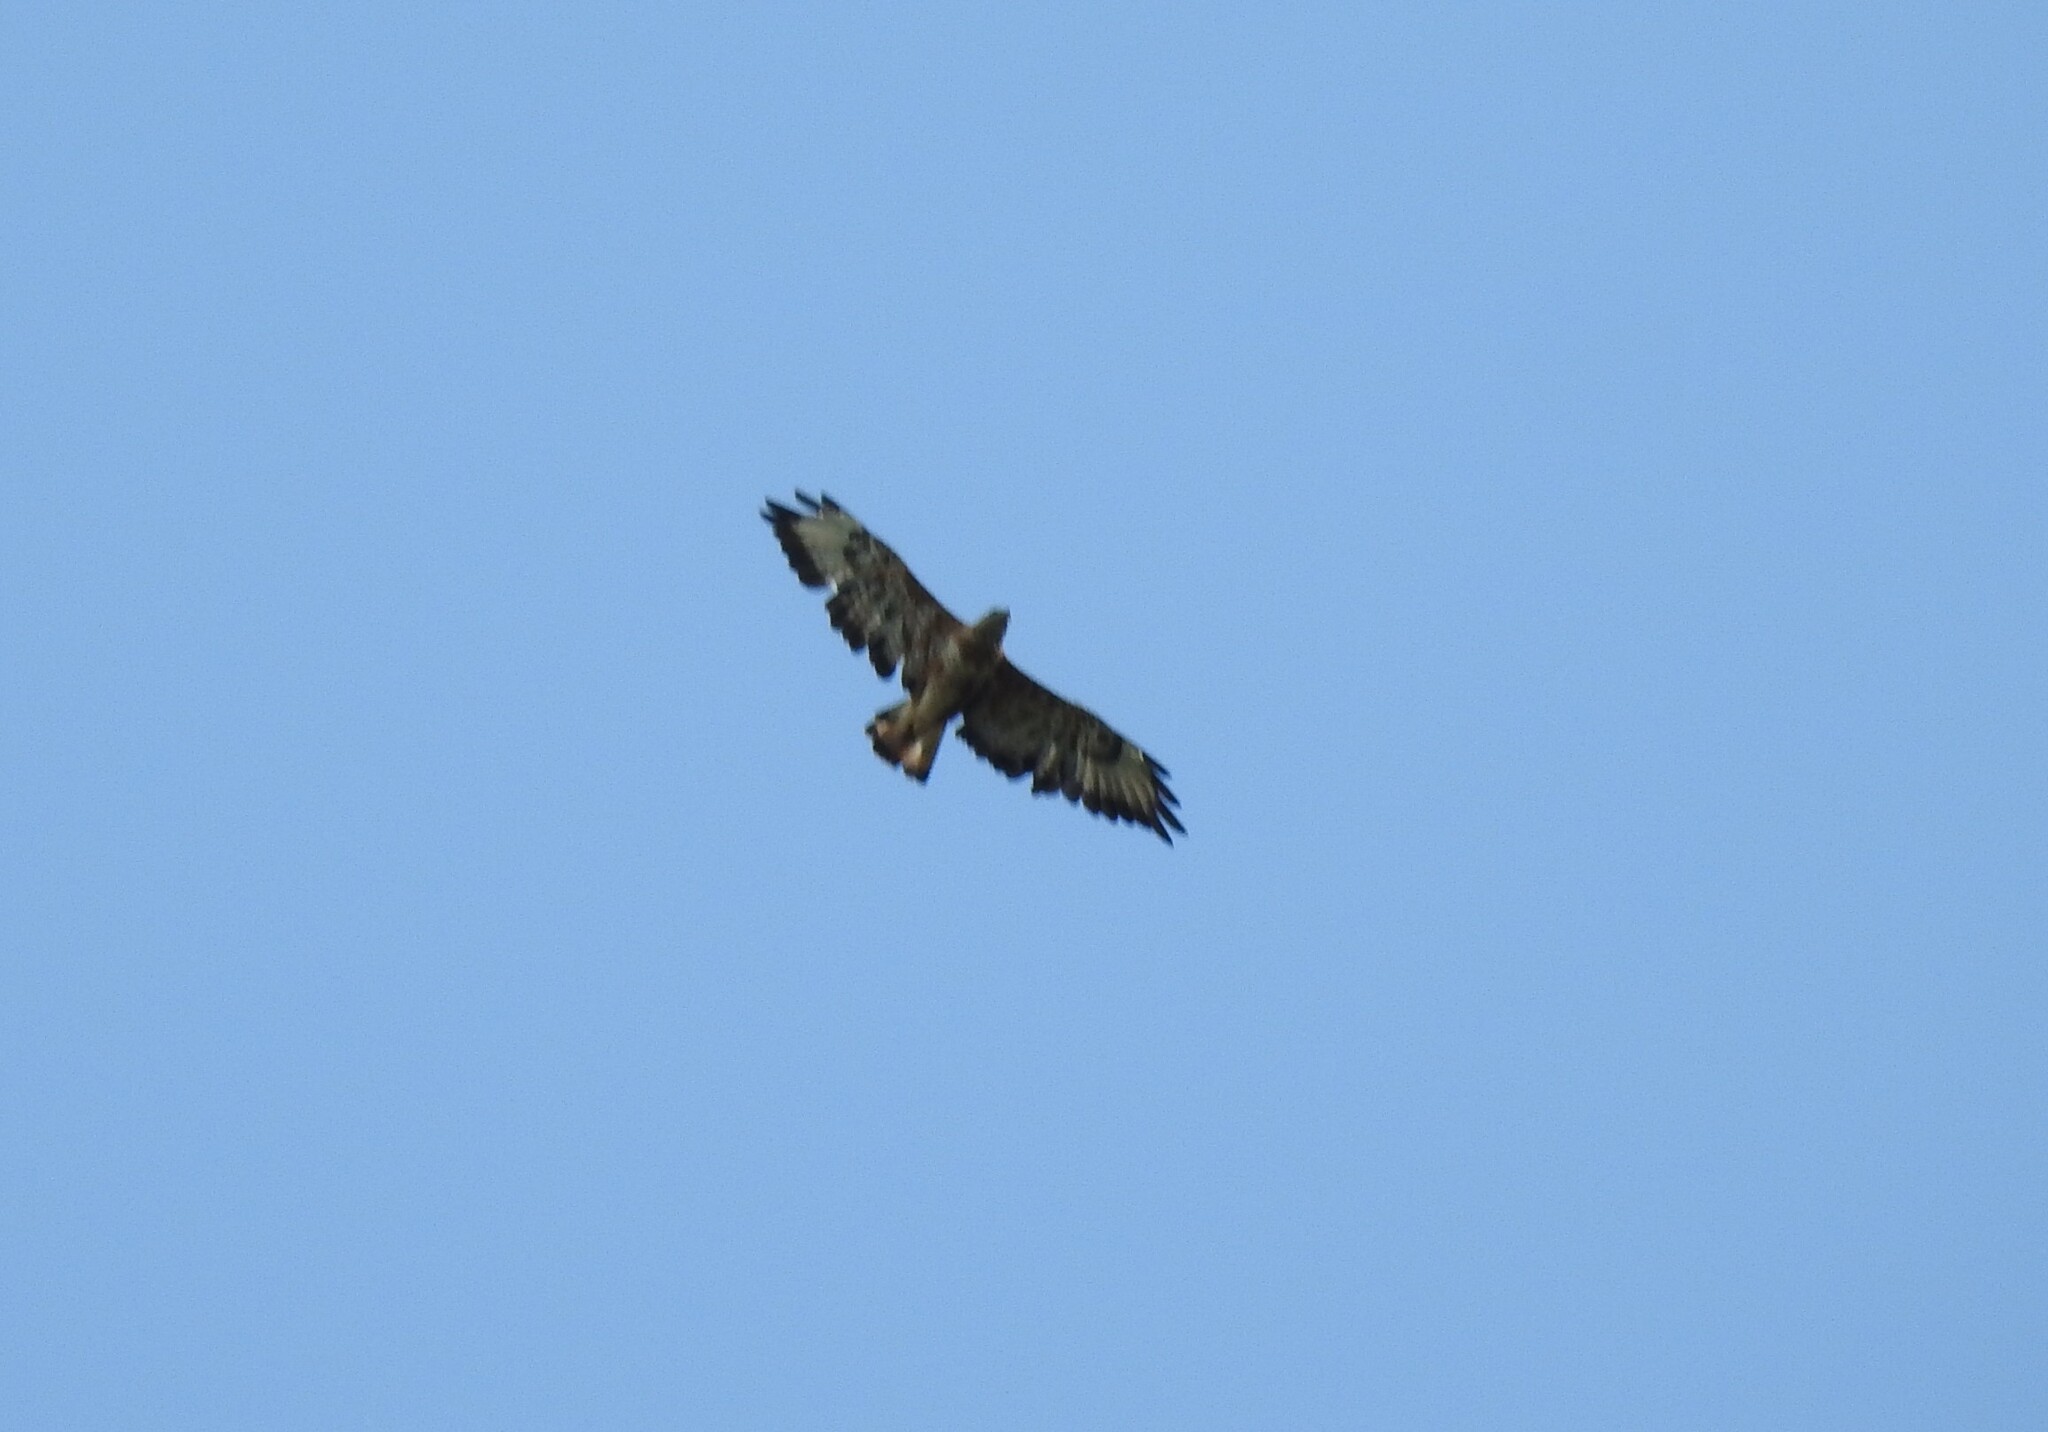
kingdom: Animalia
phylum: Chordata
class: Aves
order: Accipitriformes
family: Accipitridae
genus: Buteo
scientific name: Buteo buteo
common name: Common buzzard
